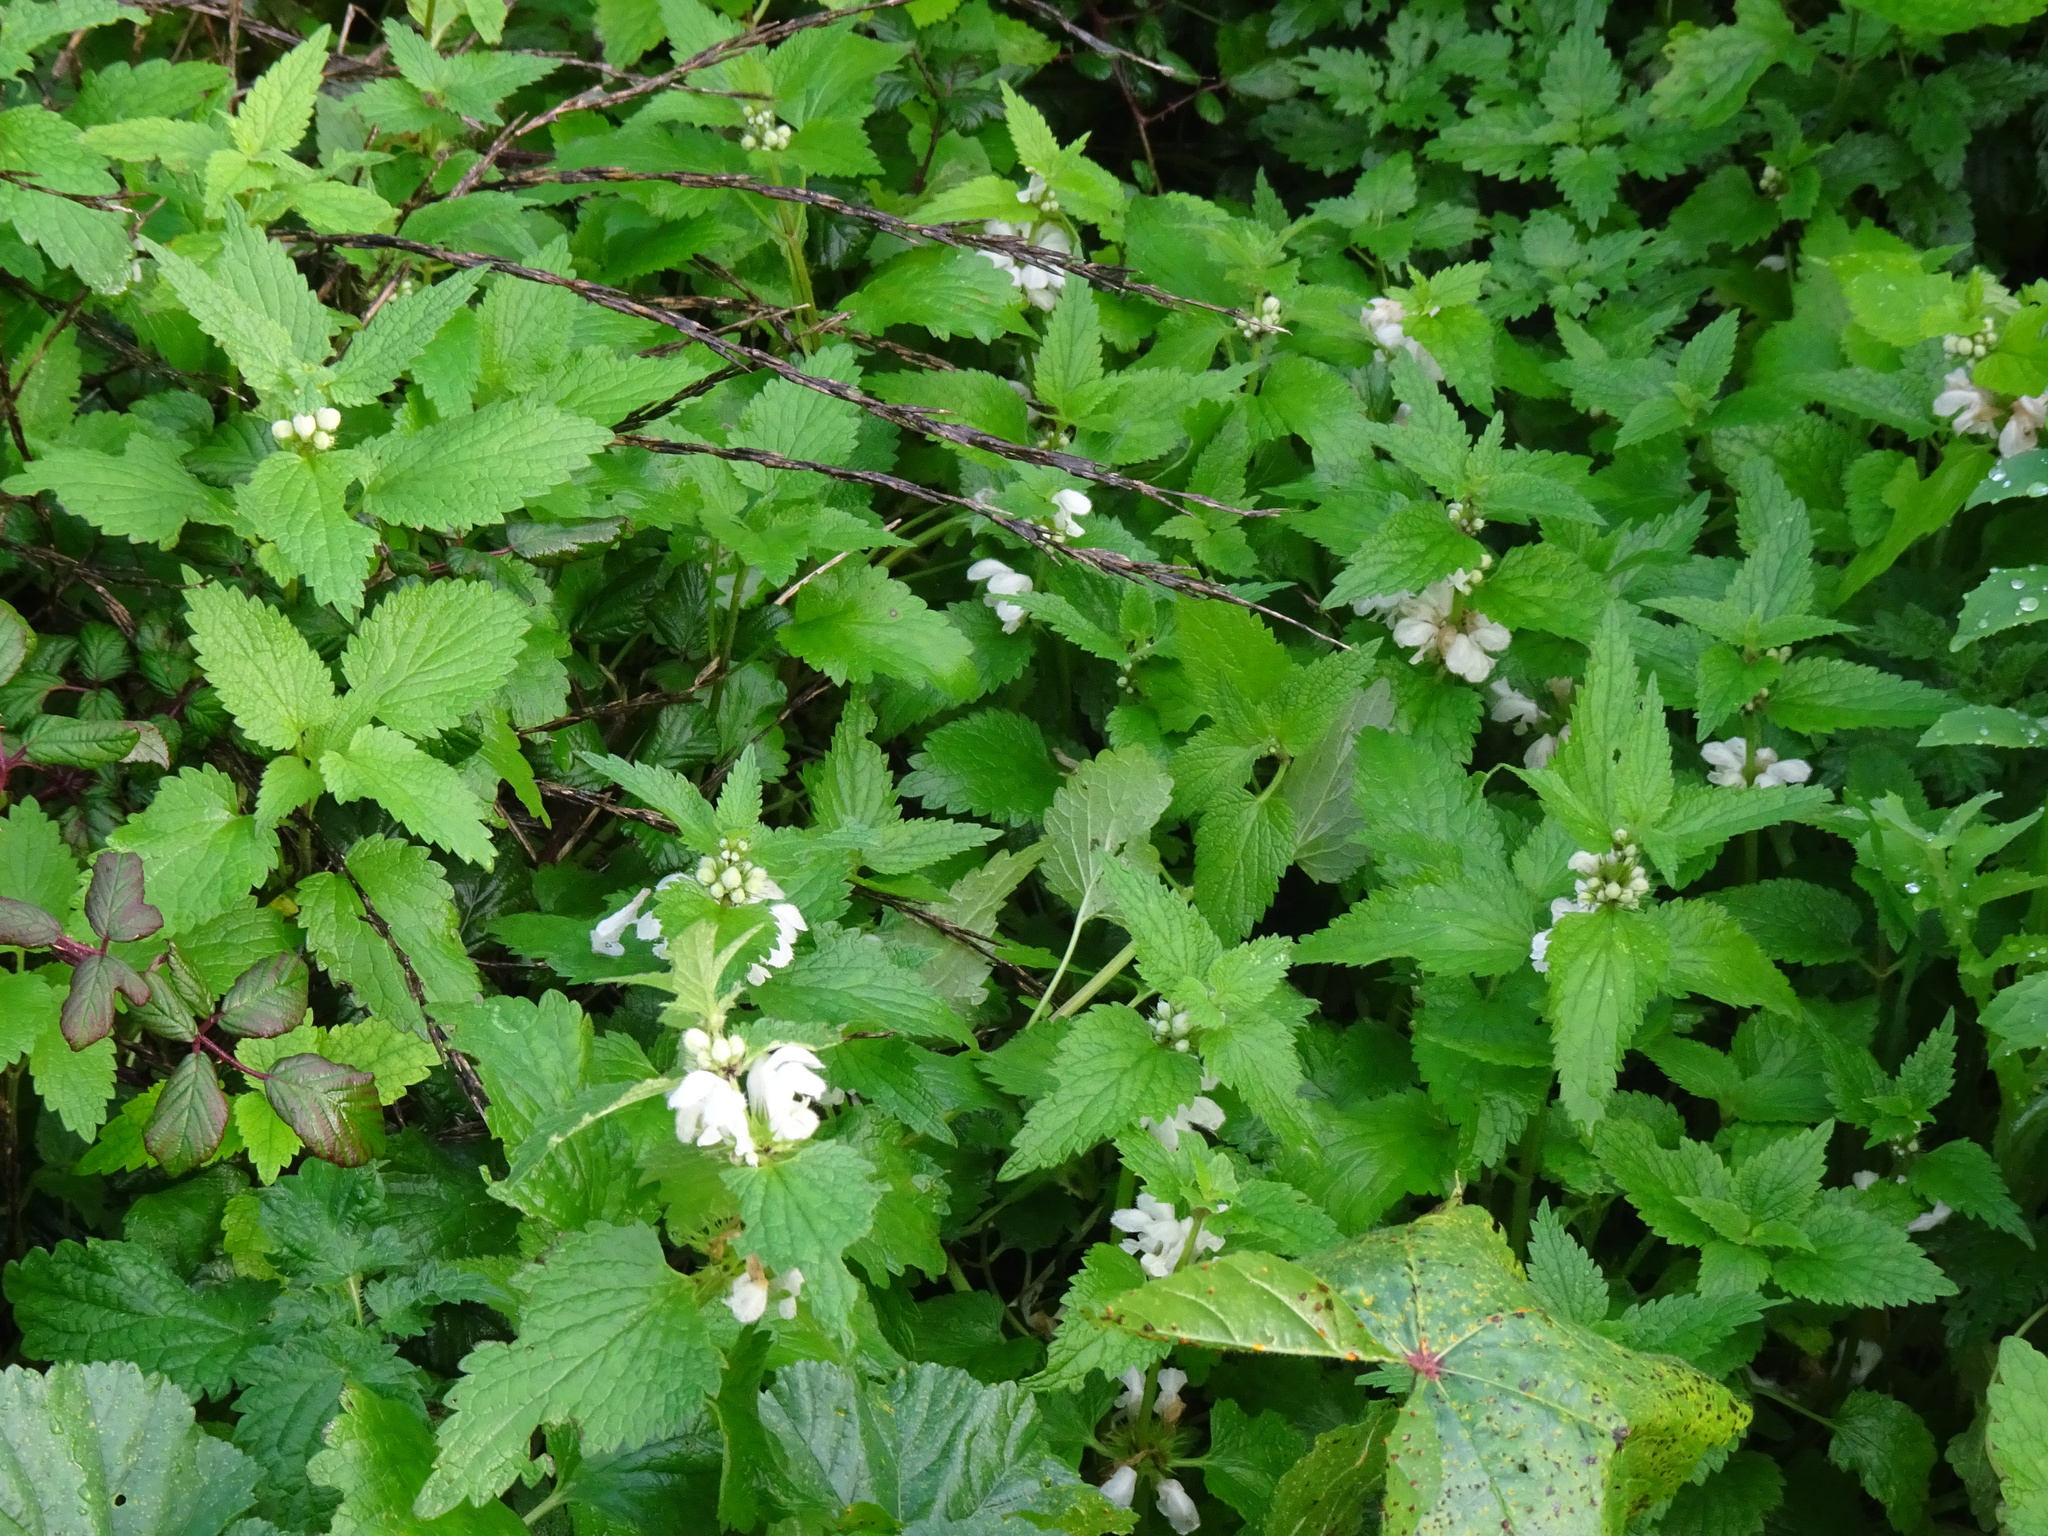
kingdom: Plantae
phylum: Tracheophyta
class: Magnoliopsida
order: Lamiales
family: Lamiaceae
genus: Lamium
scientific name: Lamium album
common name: White dead-nettle
